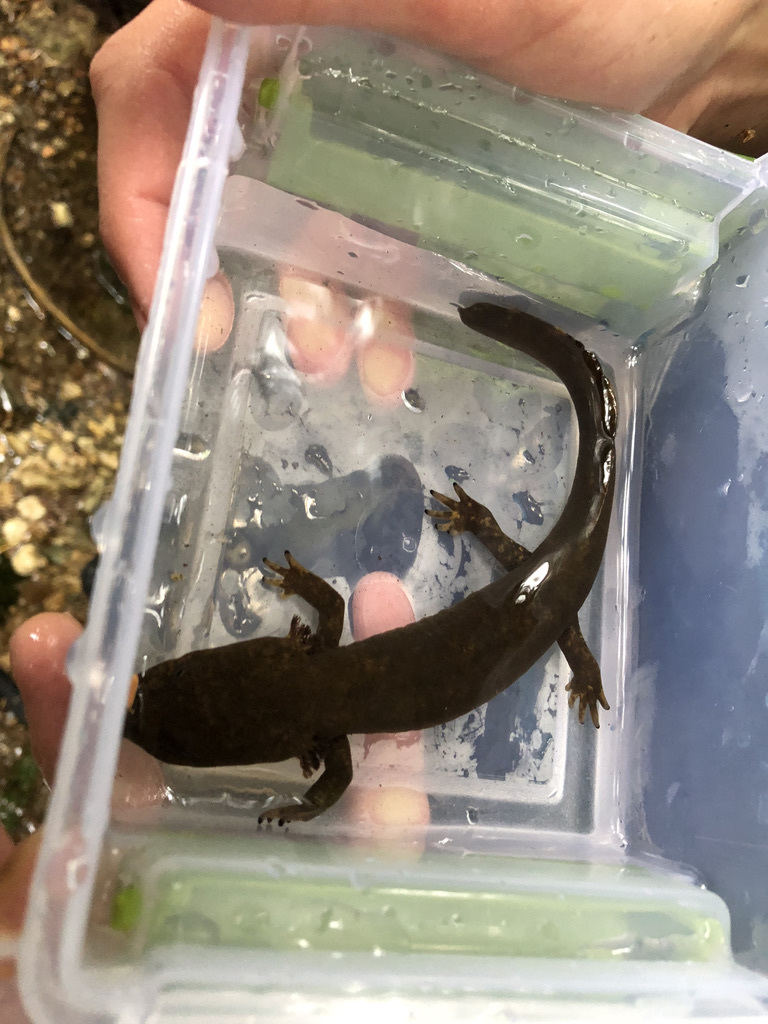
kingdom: Animalia
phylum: Chordata
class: Amphibia
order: Caudata
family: Ambystomatidae
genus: Dicamptodon
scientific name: Dicamptodon tenebrosus
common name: Coastal giant salamander
